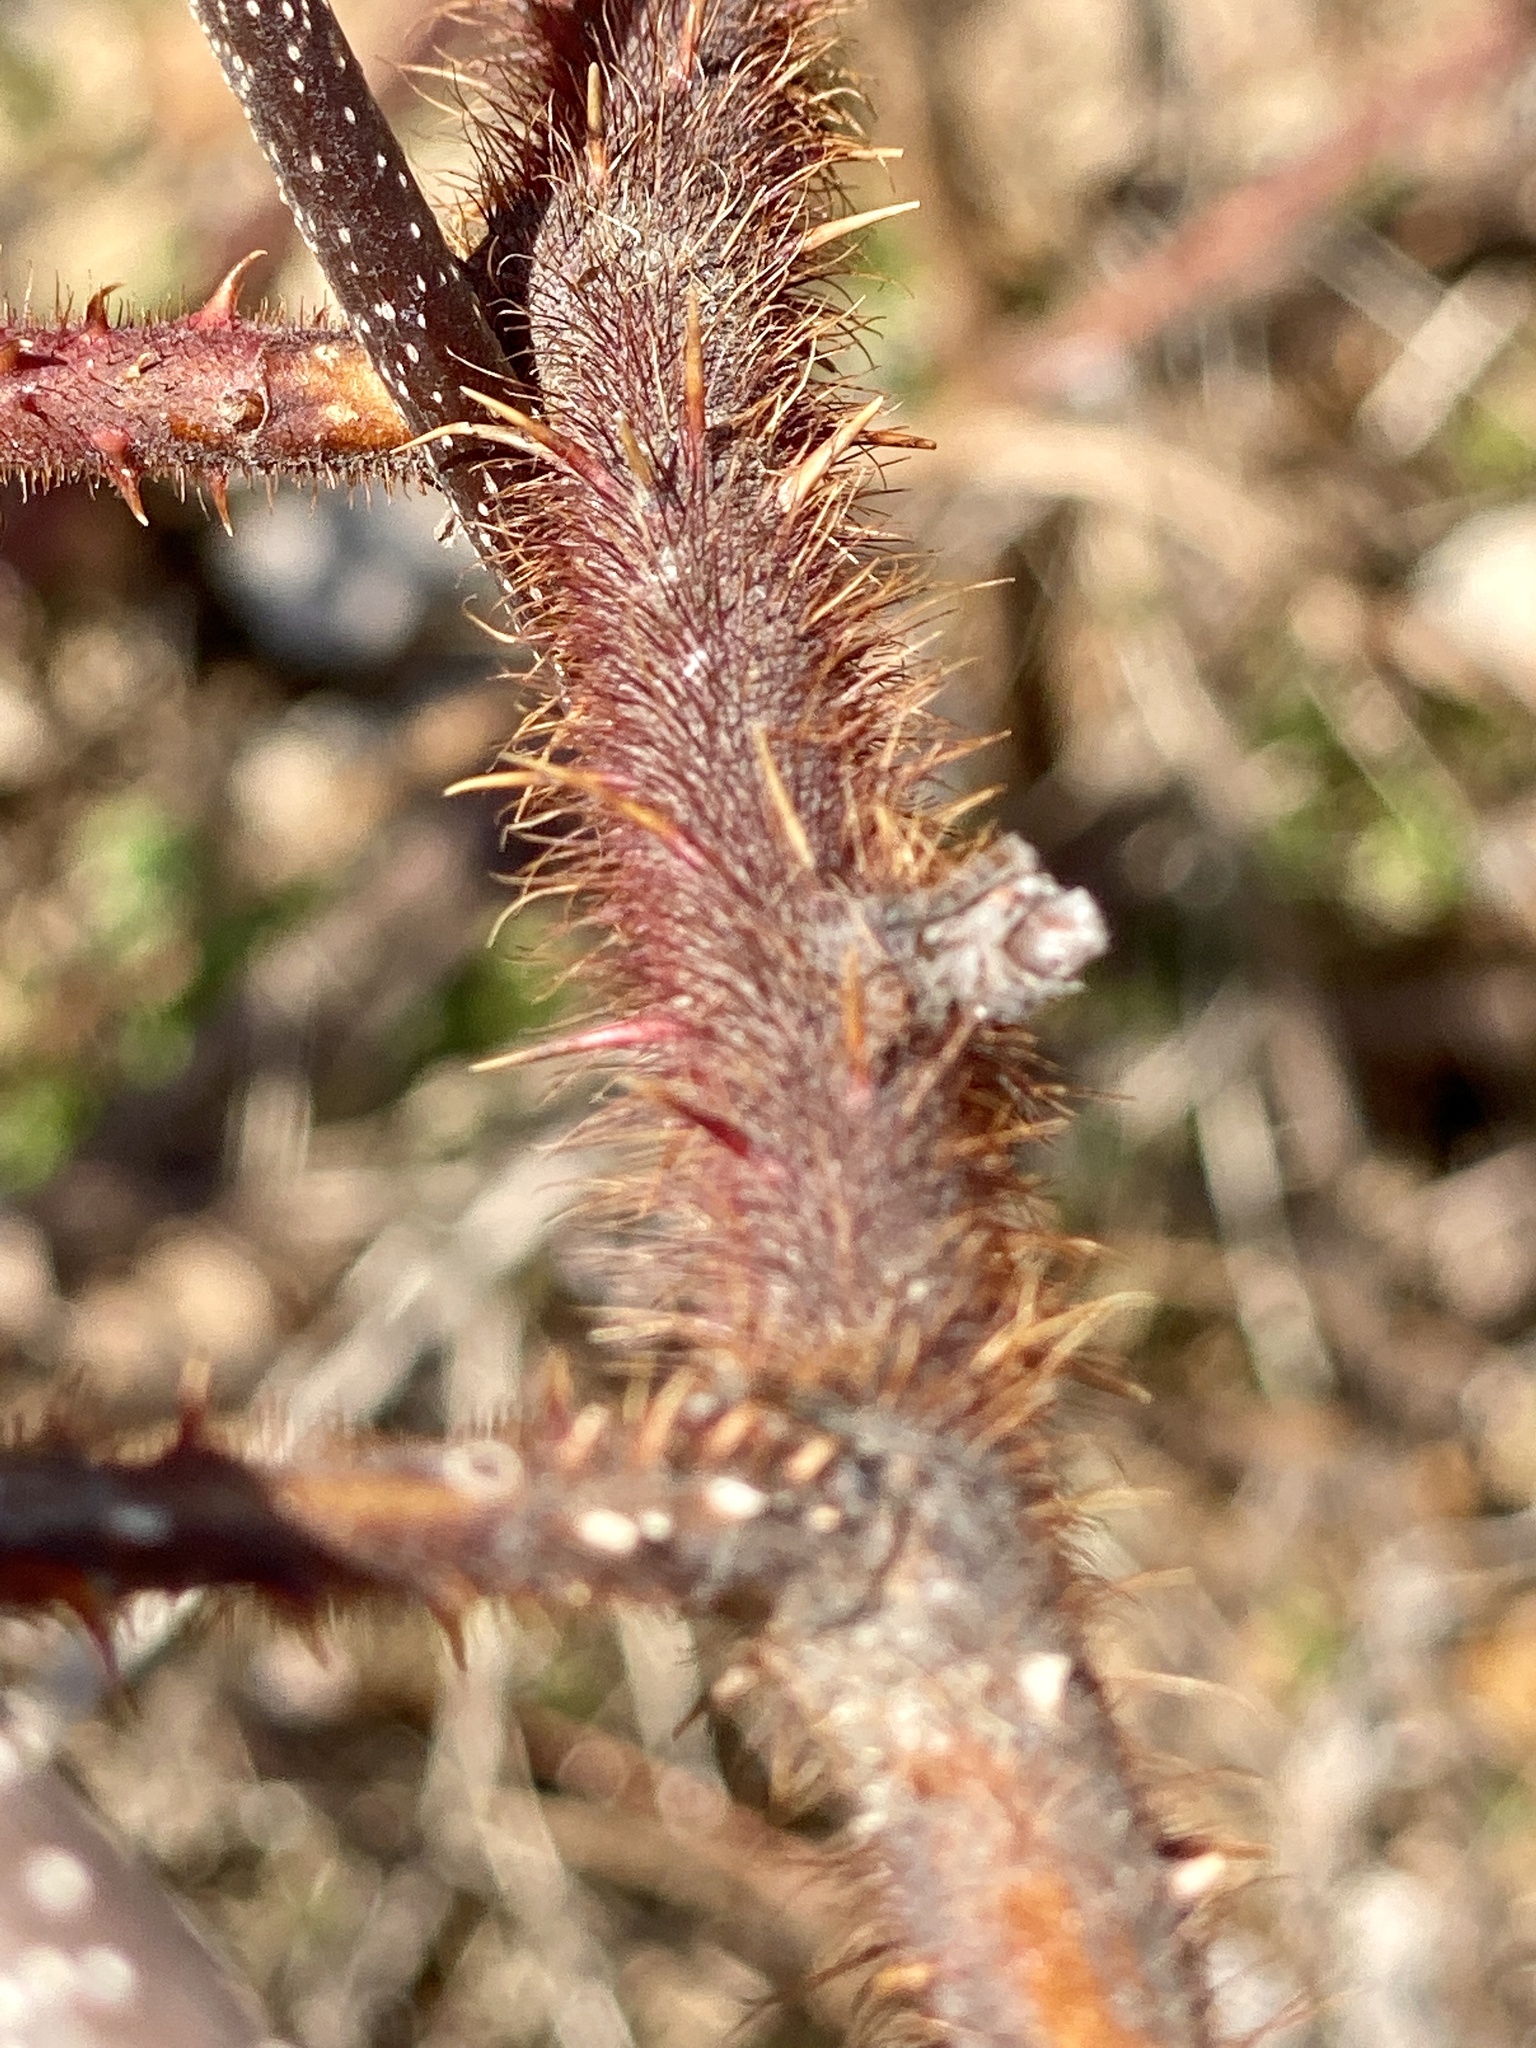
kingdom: Plantae
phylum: Tracheophyta
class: Magnoliopsida
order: Rosales
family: Rosaceae
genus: Rubus
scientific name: Rubus phoenicolasius
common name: Japanese wineberry
